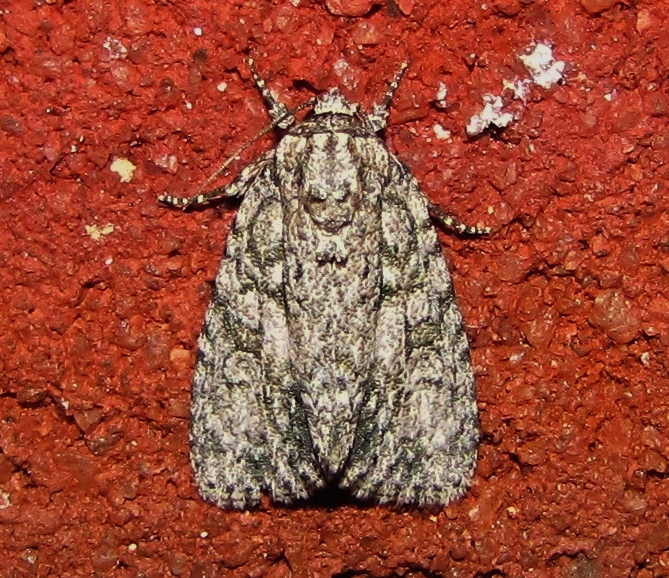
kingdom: Animalia
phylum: Arthropoda
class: Insecta
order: Lepidoptera
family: Noctuidae
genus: Acronicta
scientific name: Acronicta retardata
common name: Maple dagger
